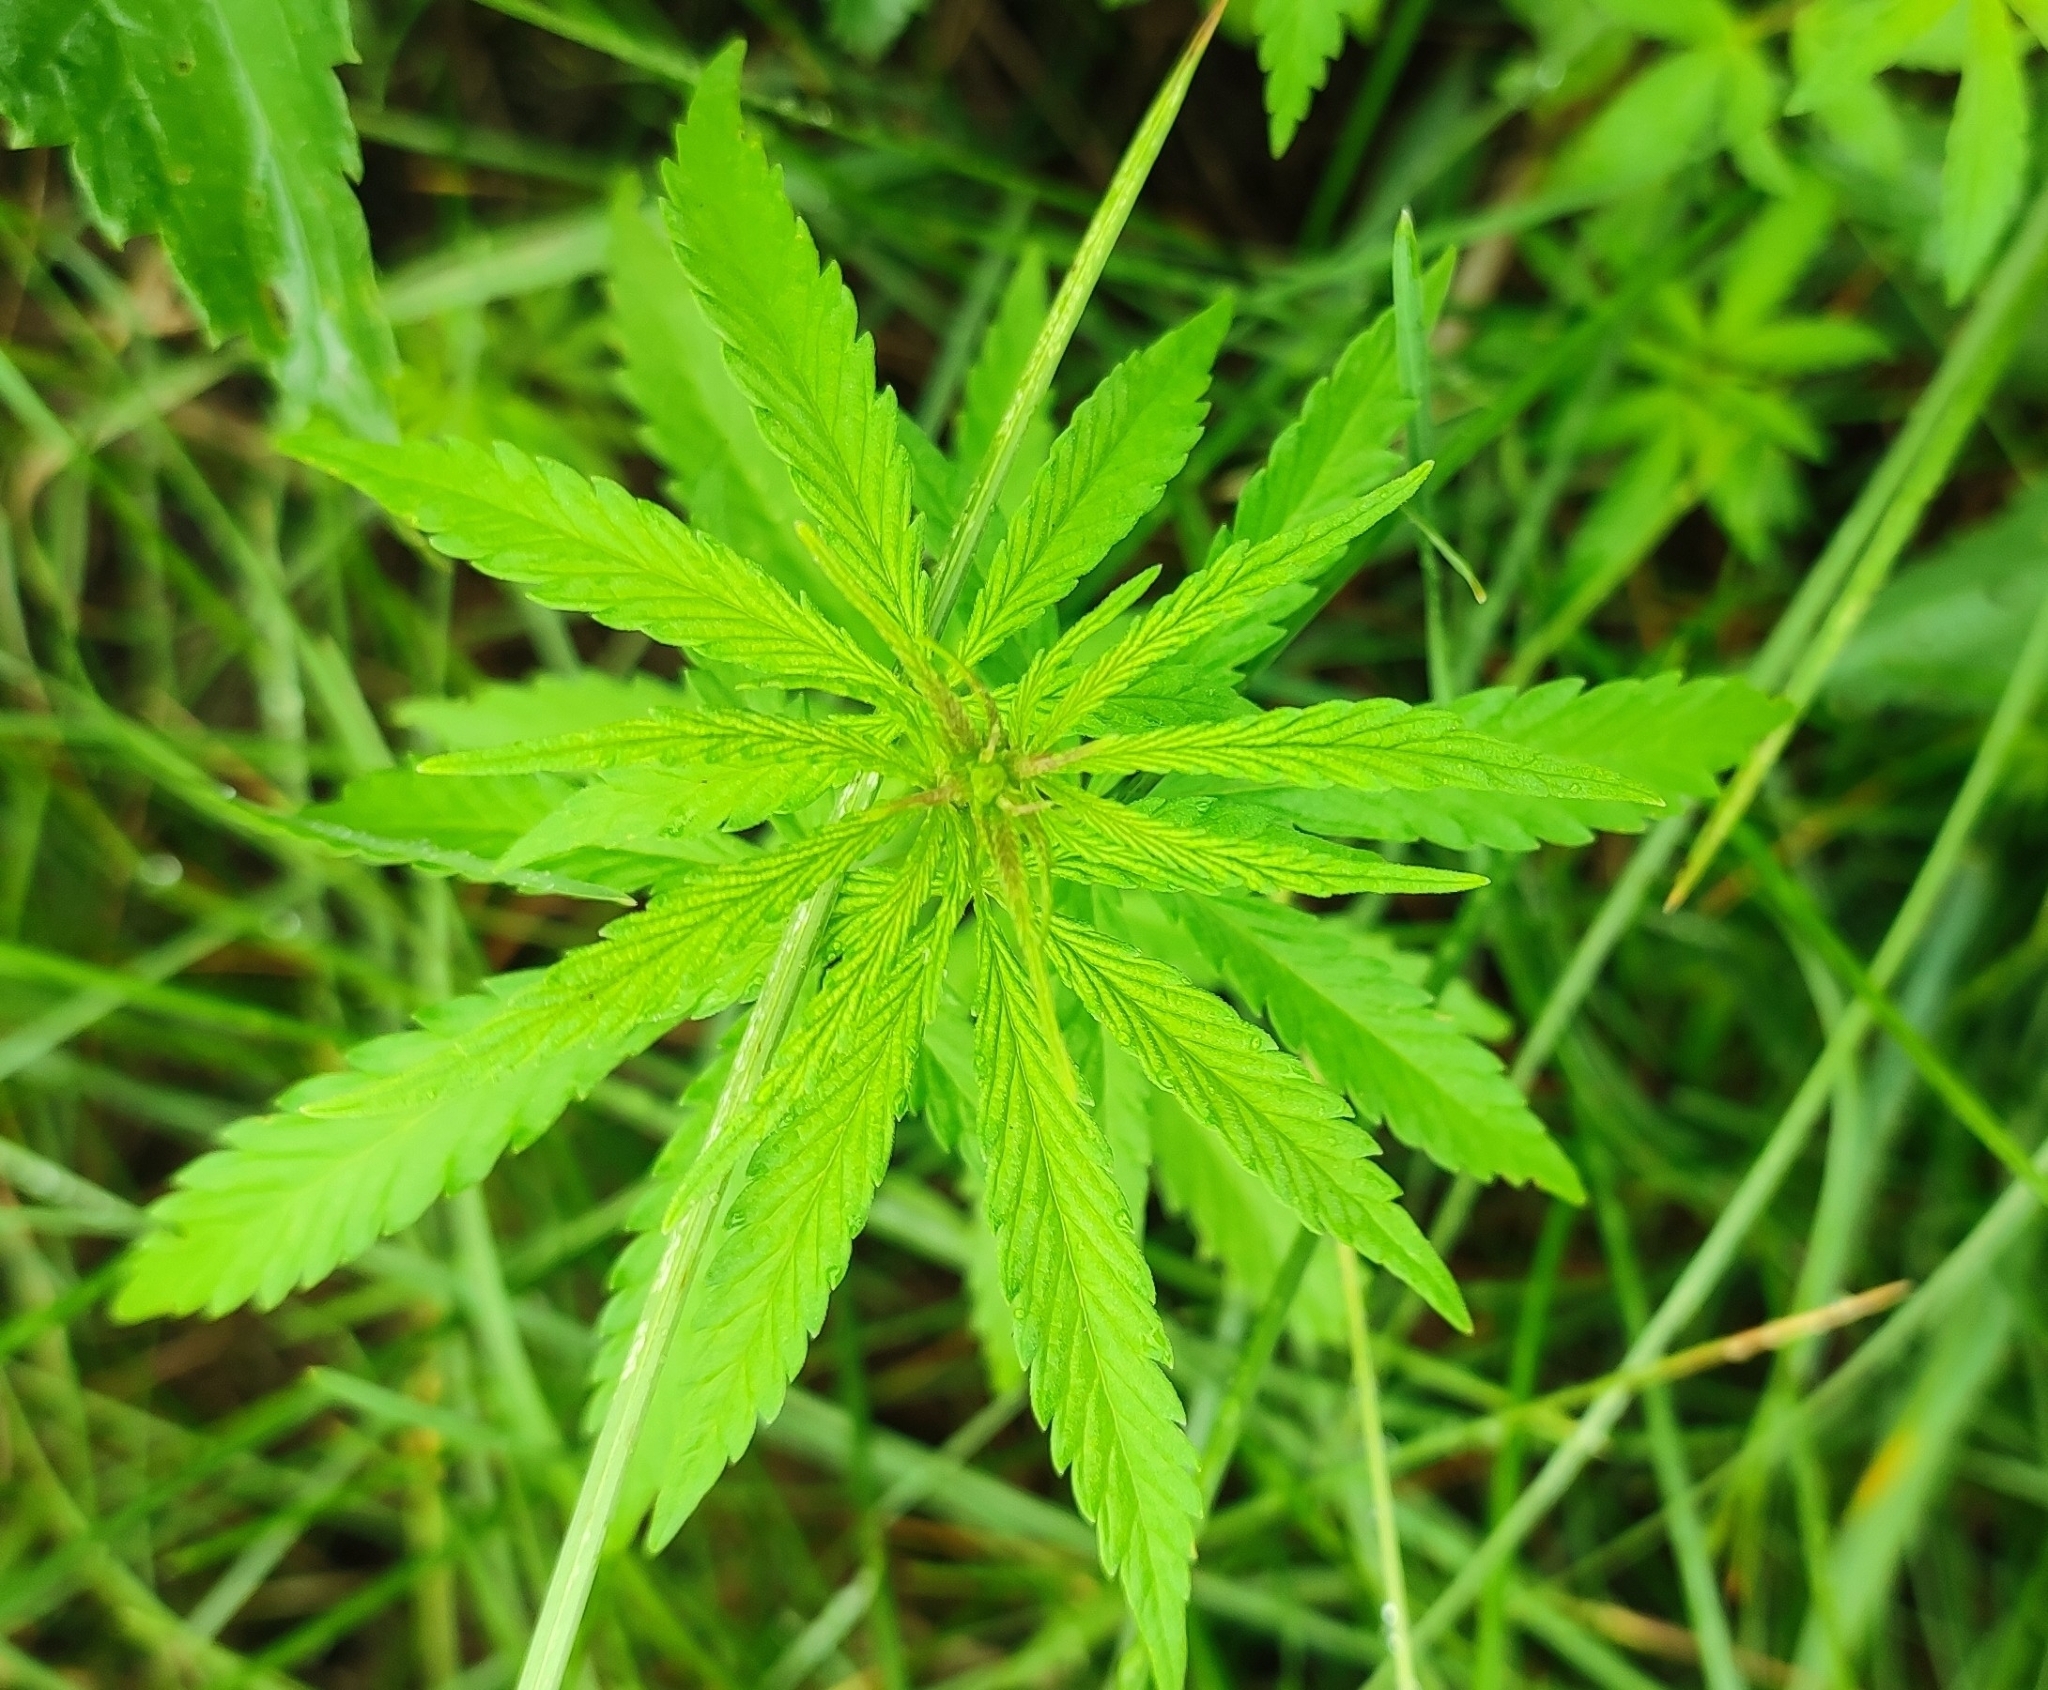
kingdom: Plantae
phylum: Tracheophyta
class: Magnoliopsida
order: Rosales
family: Cannabaceae
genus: Cannabis
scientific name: Cannabis sativa
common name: Hemp
